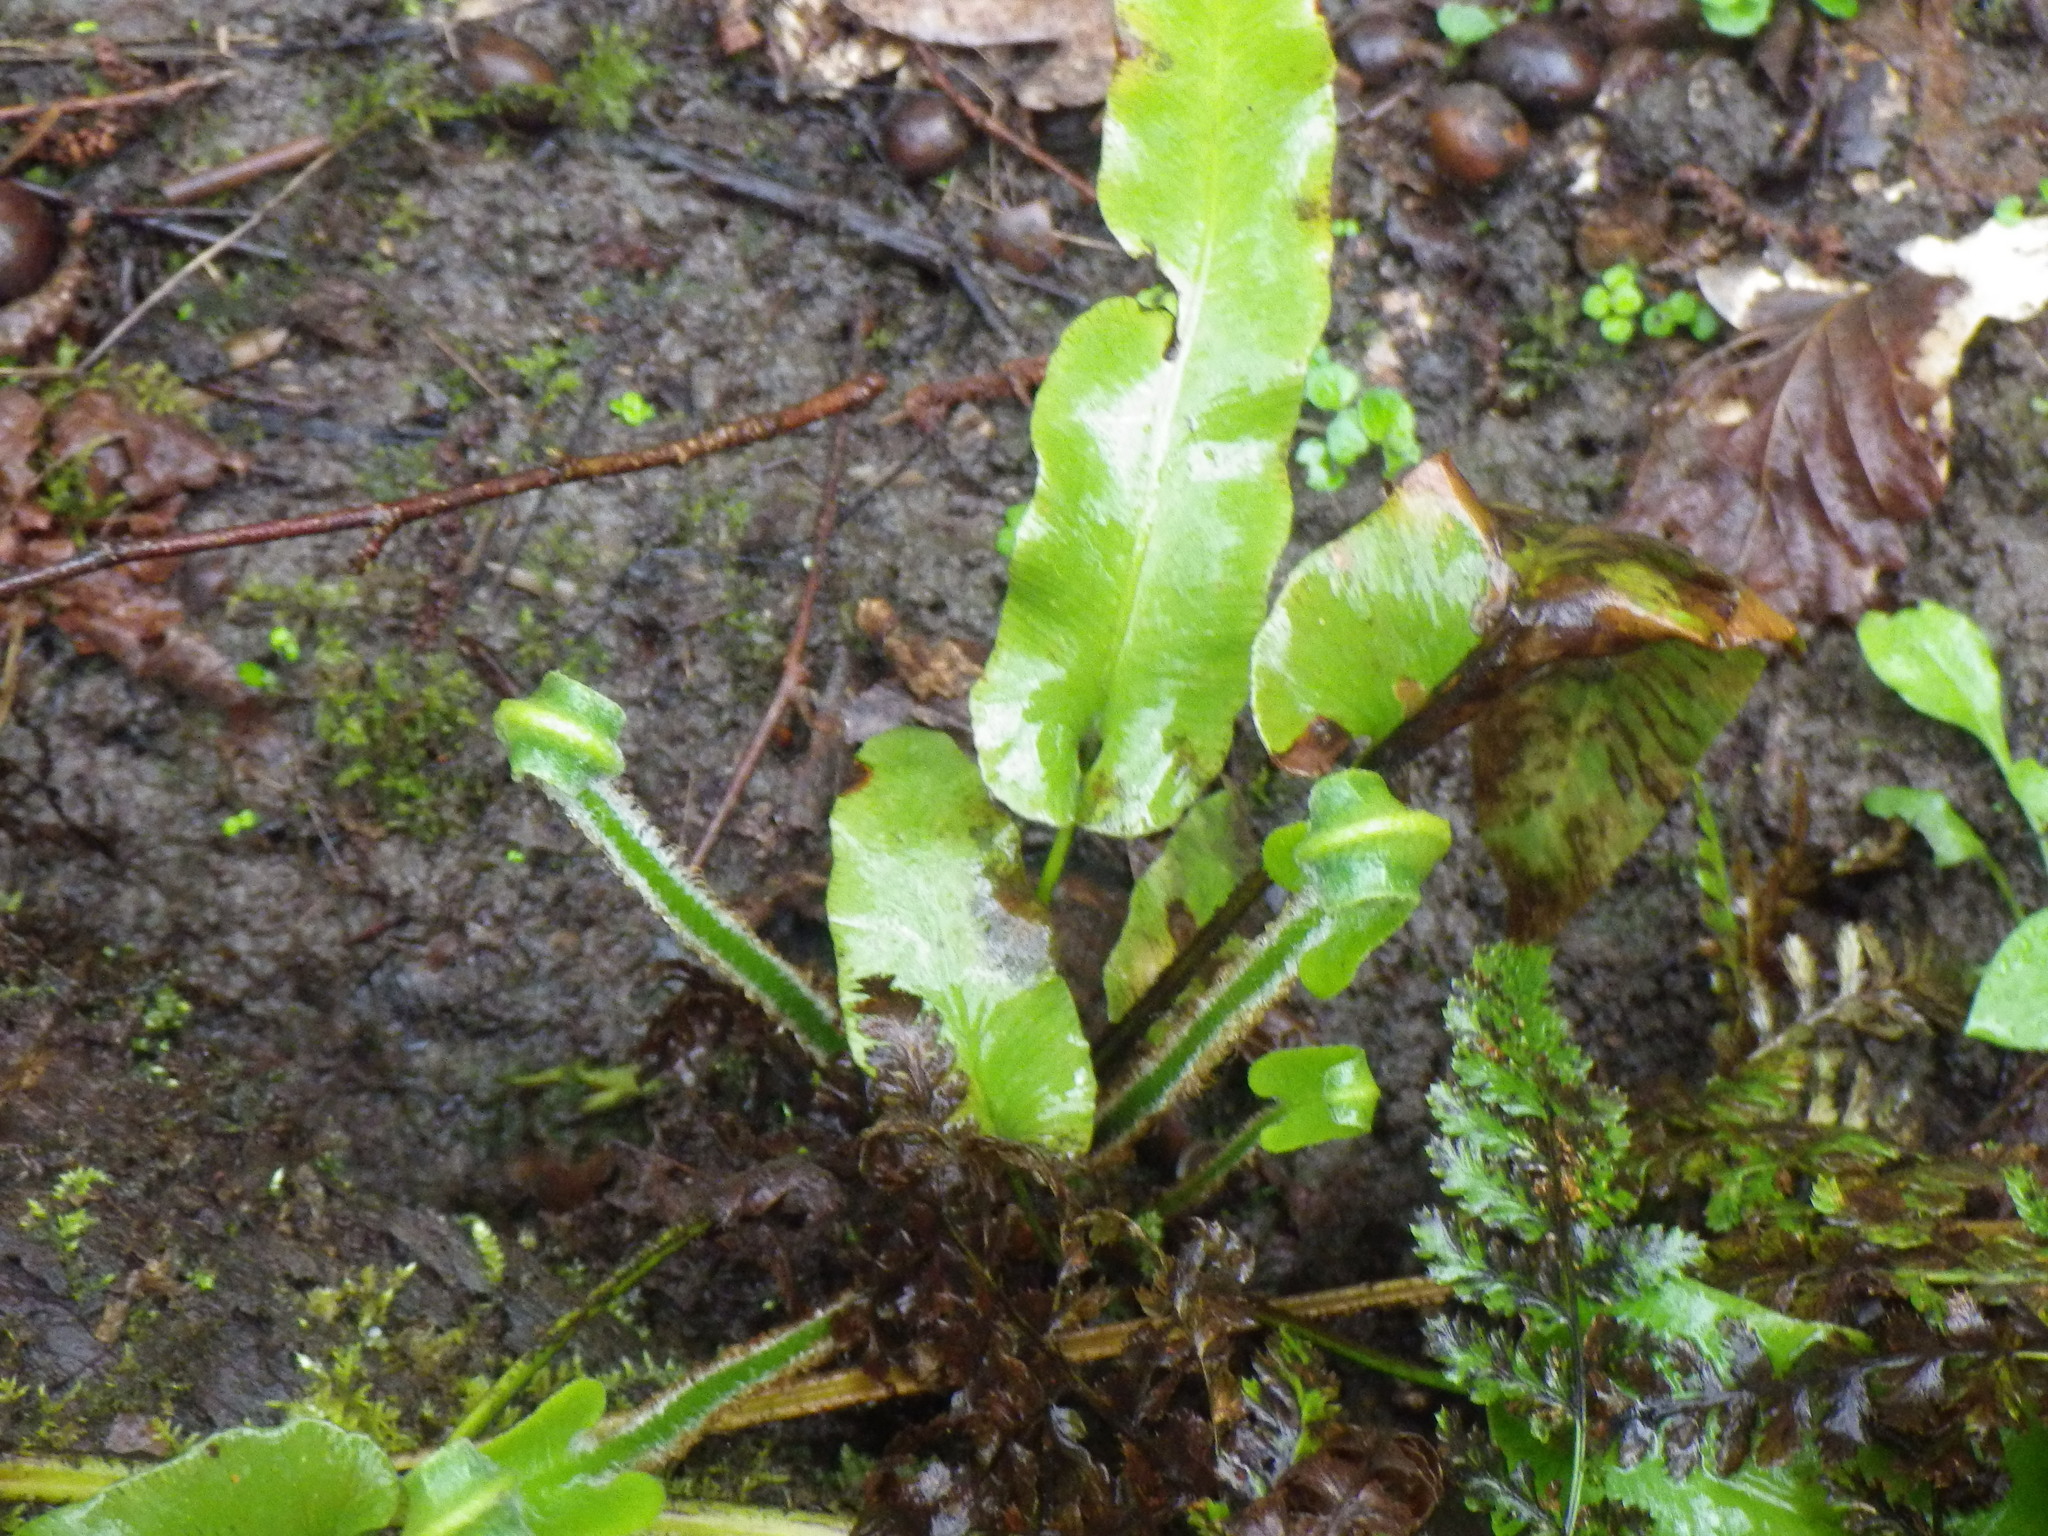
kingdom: Plantae
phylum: Tracheophyta
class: Polypodiopsida
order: Polypodiales
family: Aspleniaceae
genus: Asplenium
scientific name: Asplenium scolopendrium
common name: Hart's-tongue fern
